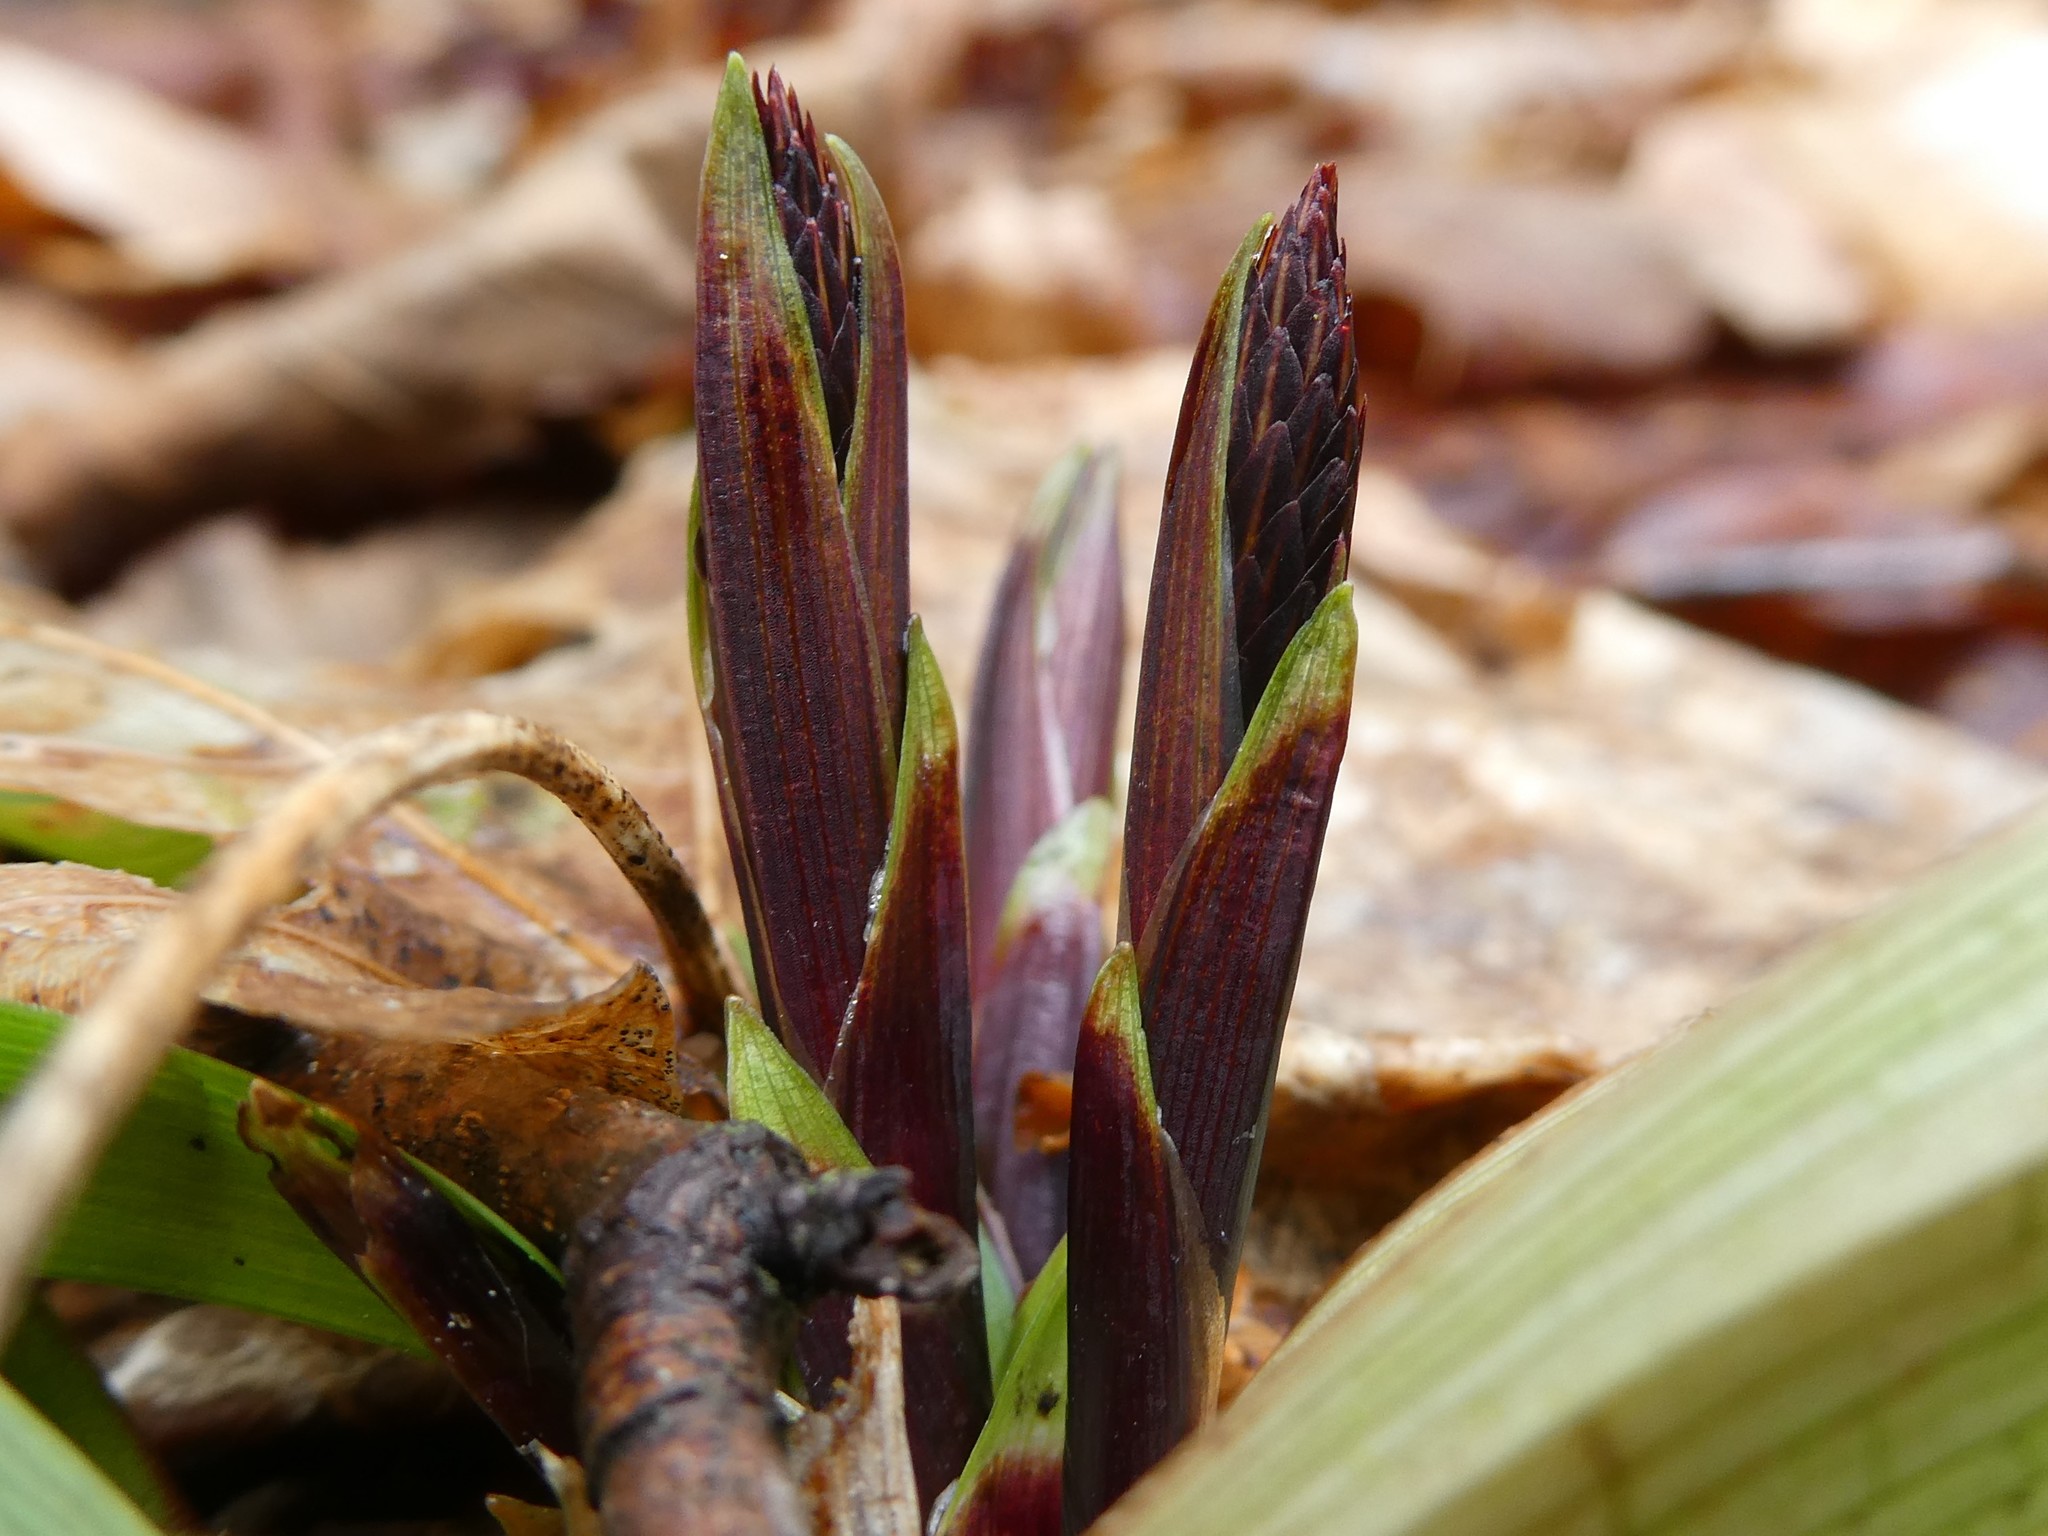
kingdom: Plantae
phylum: Tracheophyta
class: Liliopsida
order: Poales
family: Cyperaceae
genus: Carex
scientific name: Carex plantaginea
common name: Plantain-leaved sedge
